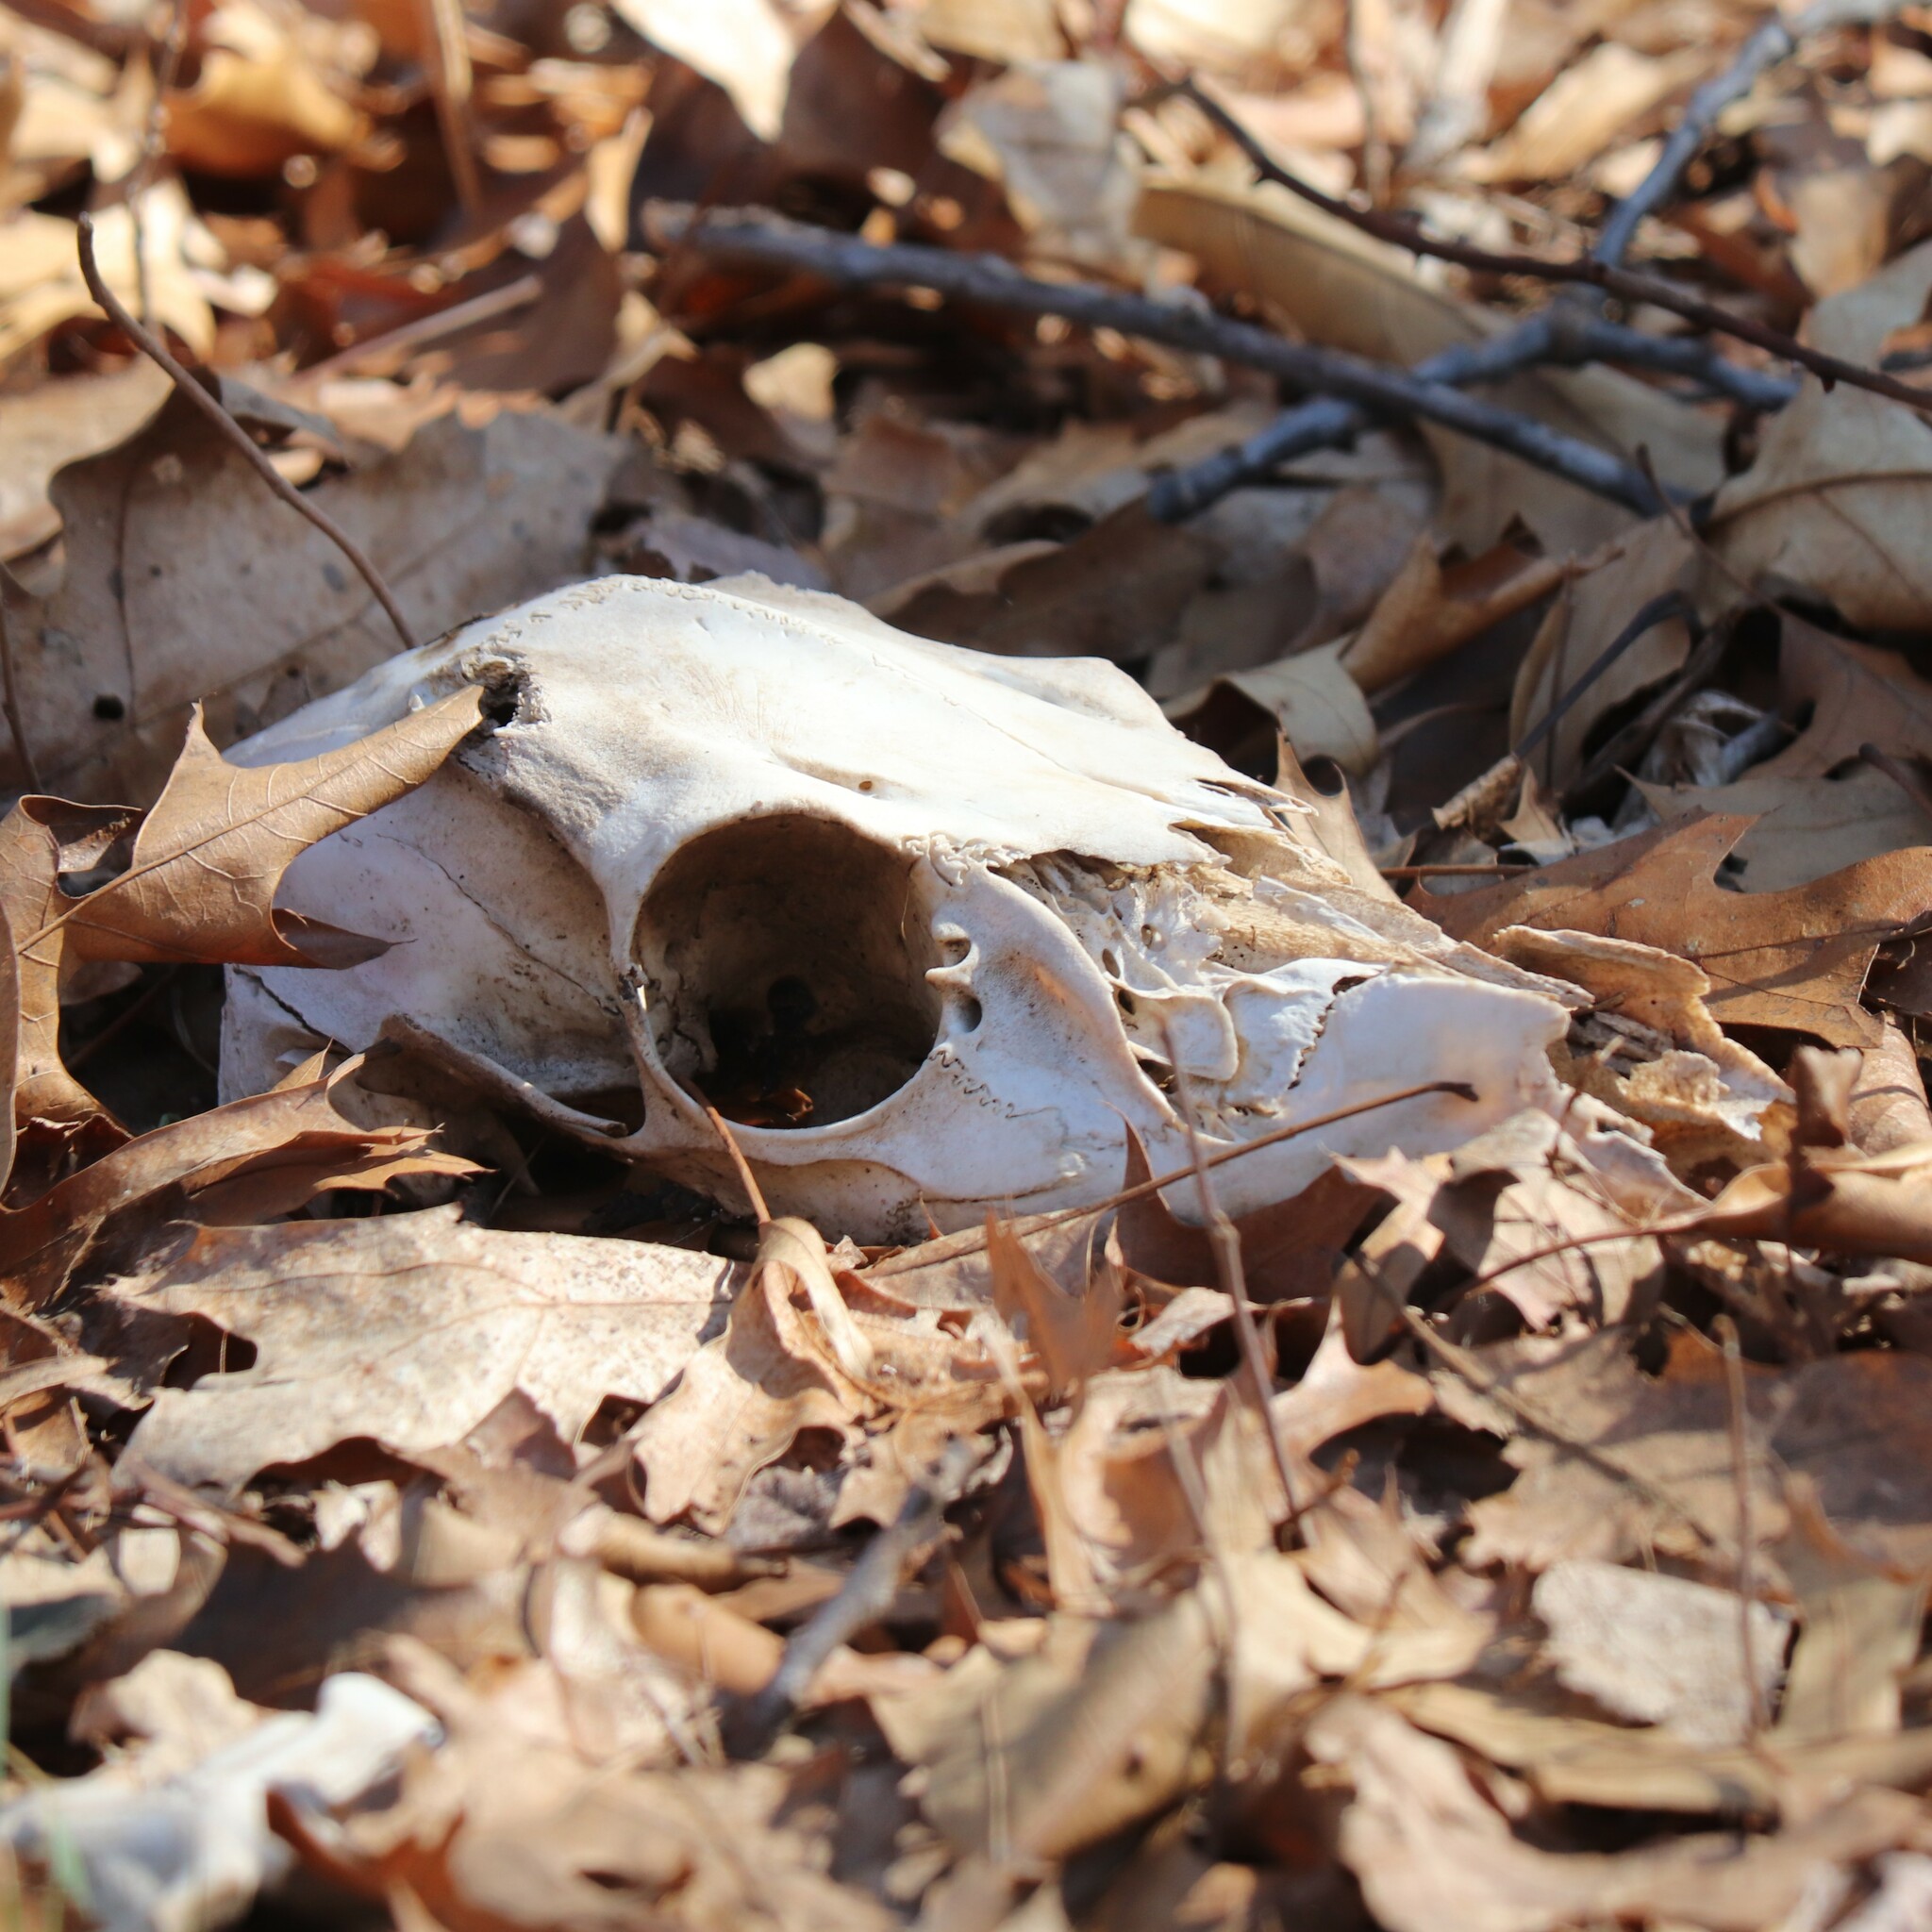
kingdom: Animalia
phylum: Chordata
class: Mammalia
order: Artiodactyla
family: Cervidae
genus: Odocoileus
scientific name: Odocoileus virginianus
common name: White-tailed deer
